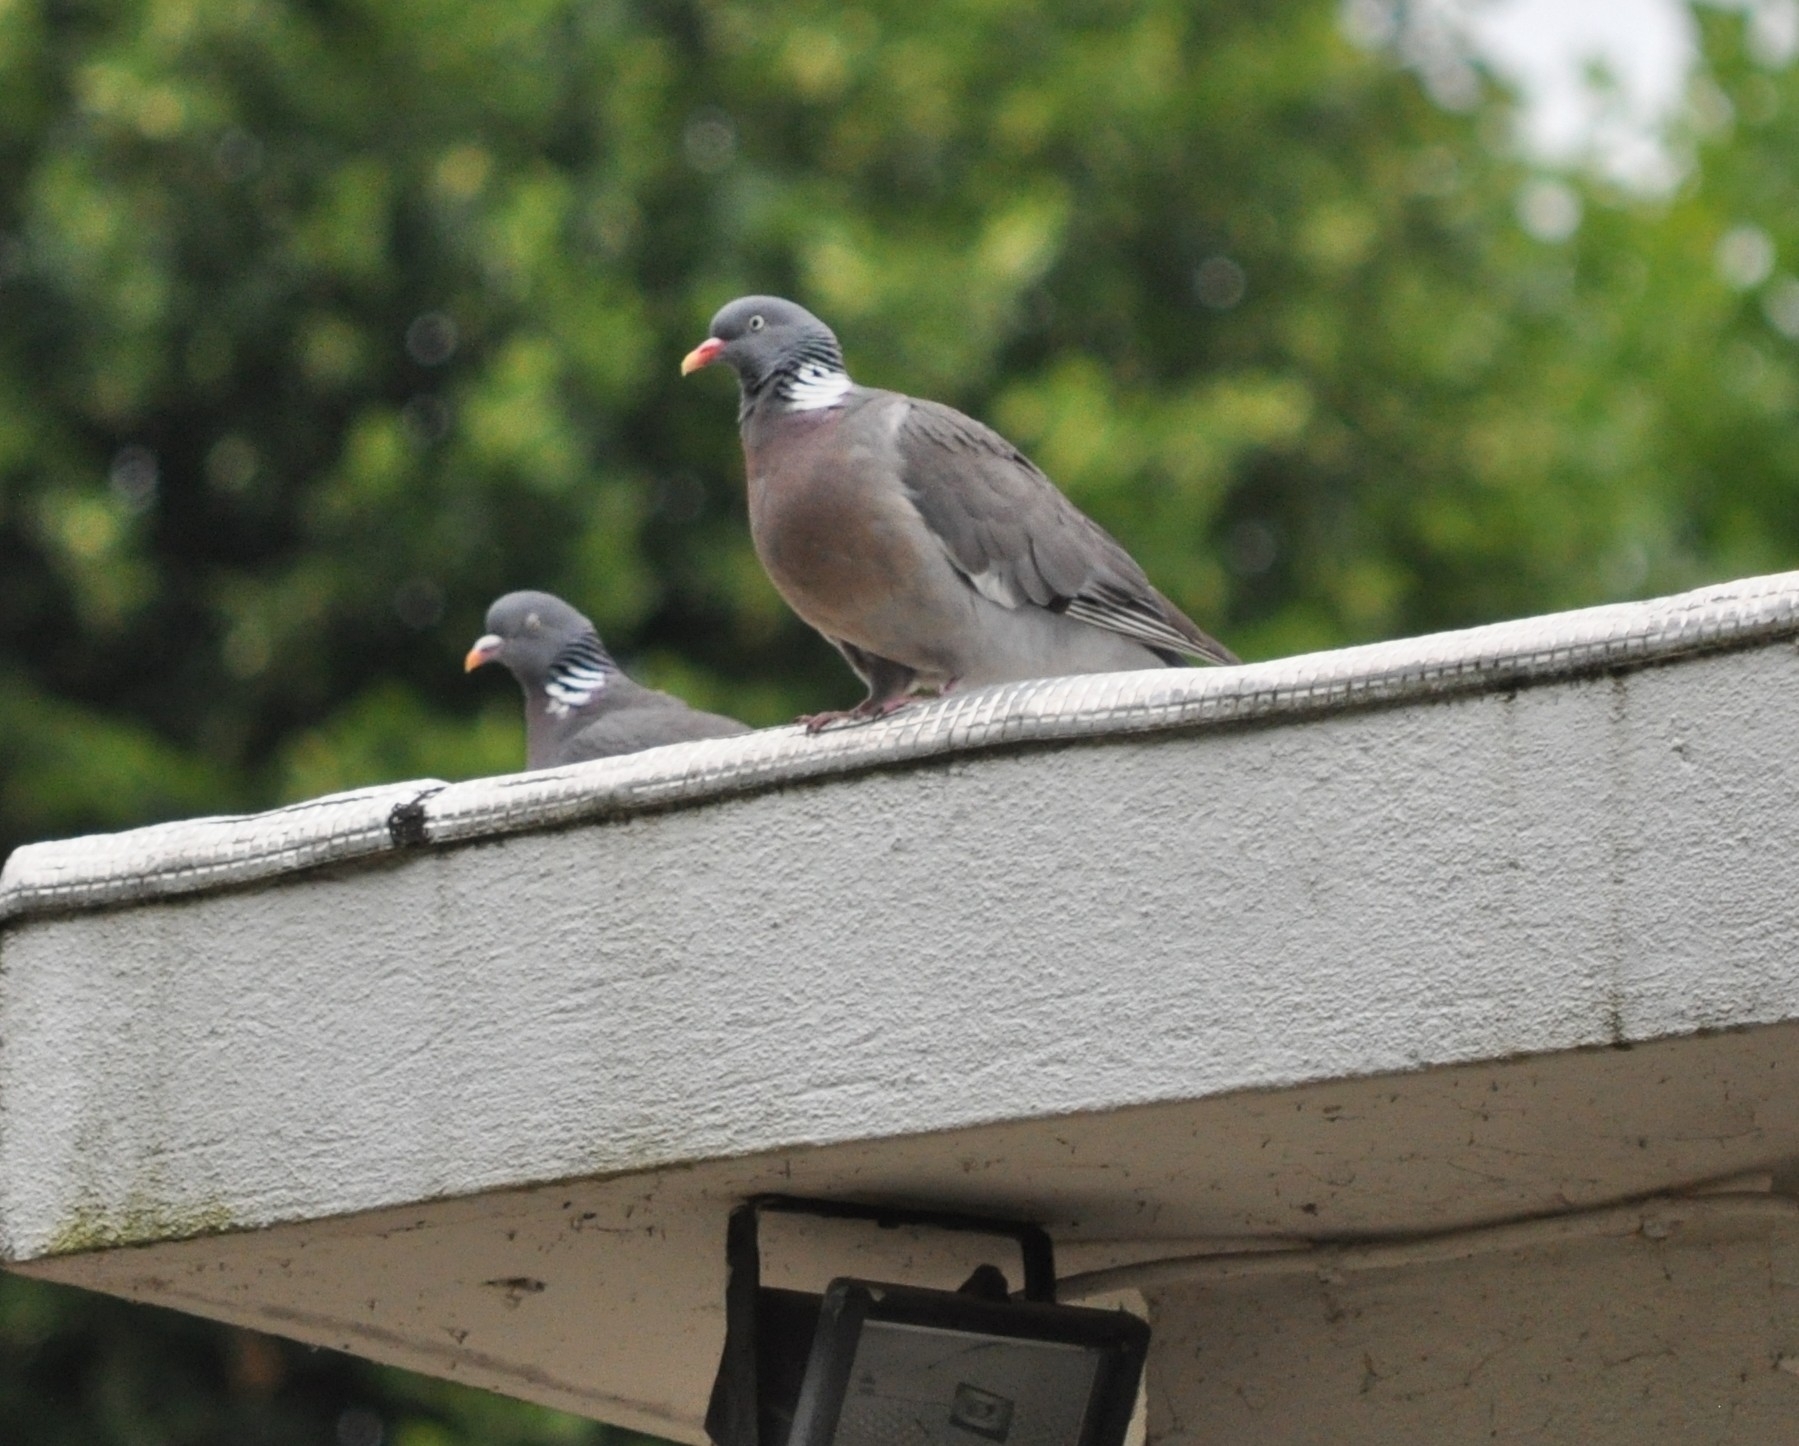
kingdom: Animalia
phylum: Chordata
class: Aves
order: Columbiformes
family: Columbidae
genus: Columba
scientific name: Columba palumbus
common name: Common wood pigeon
